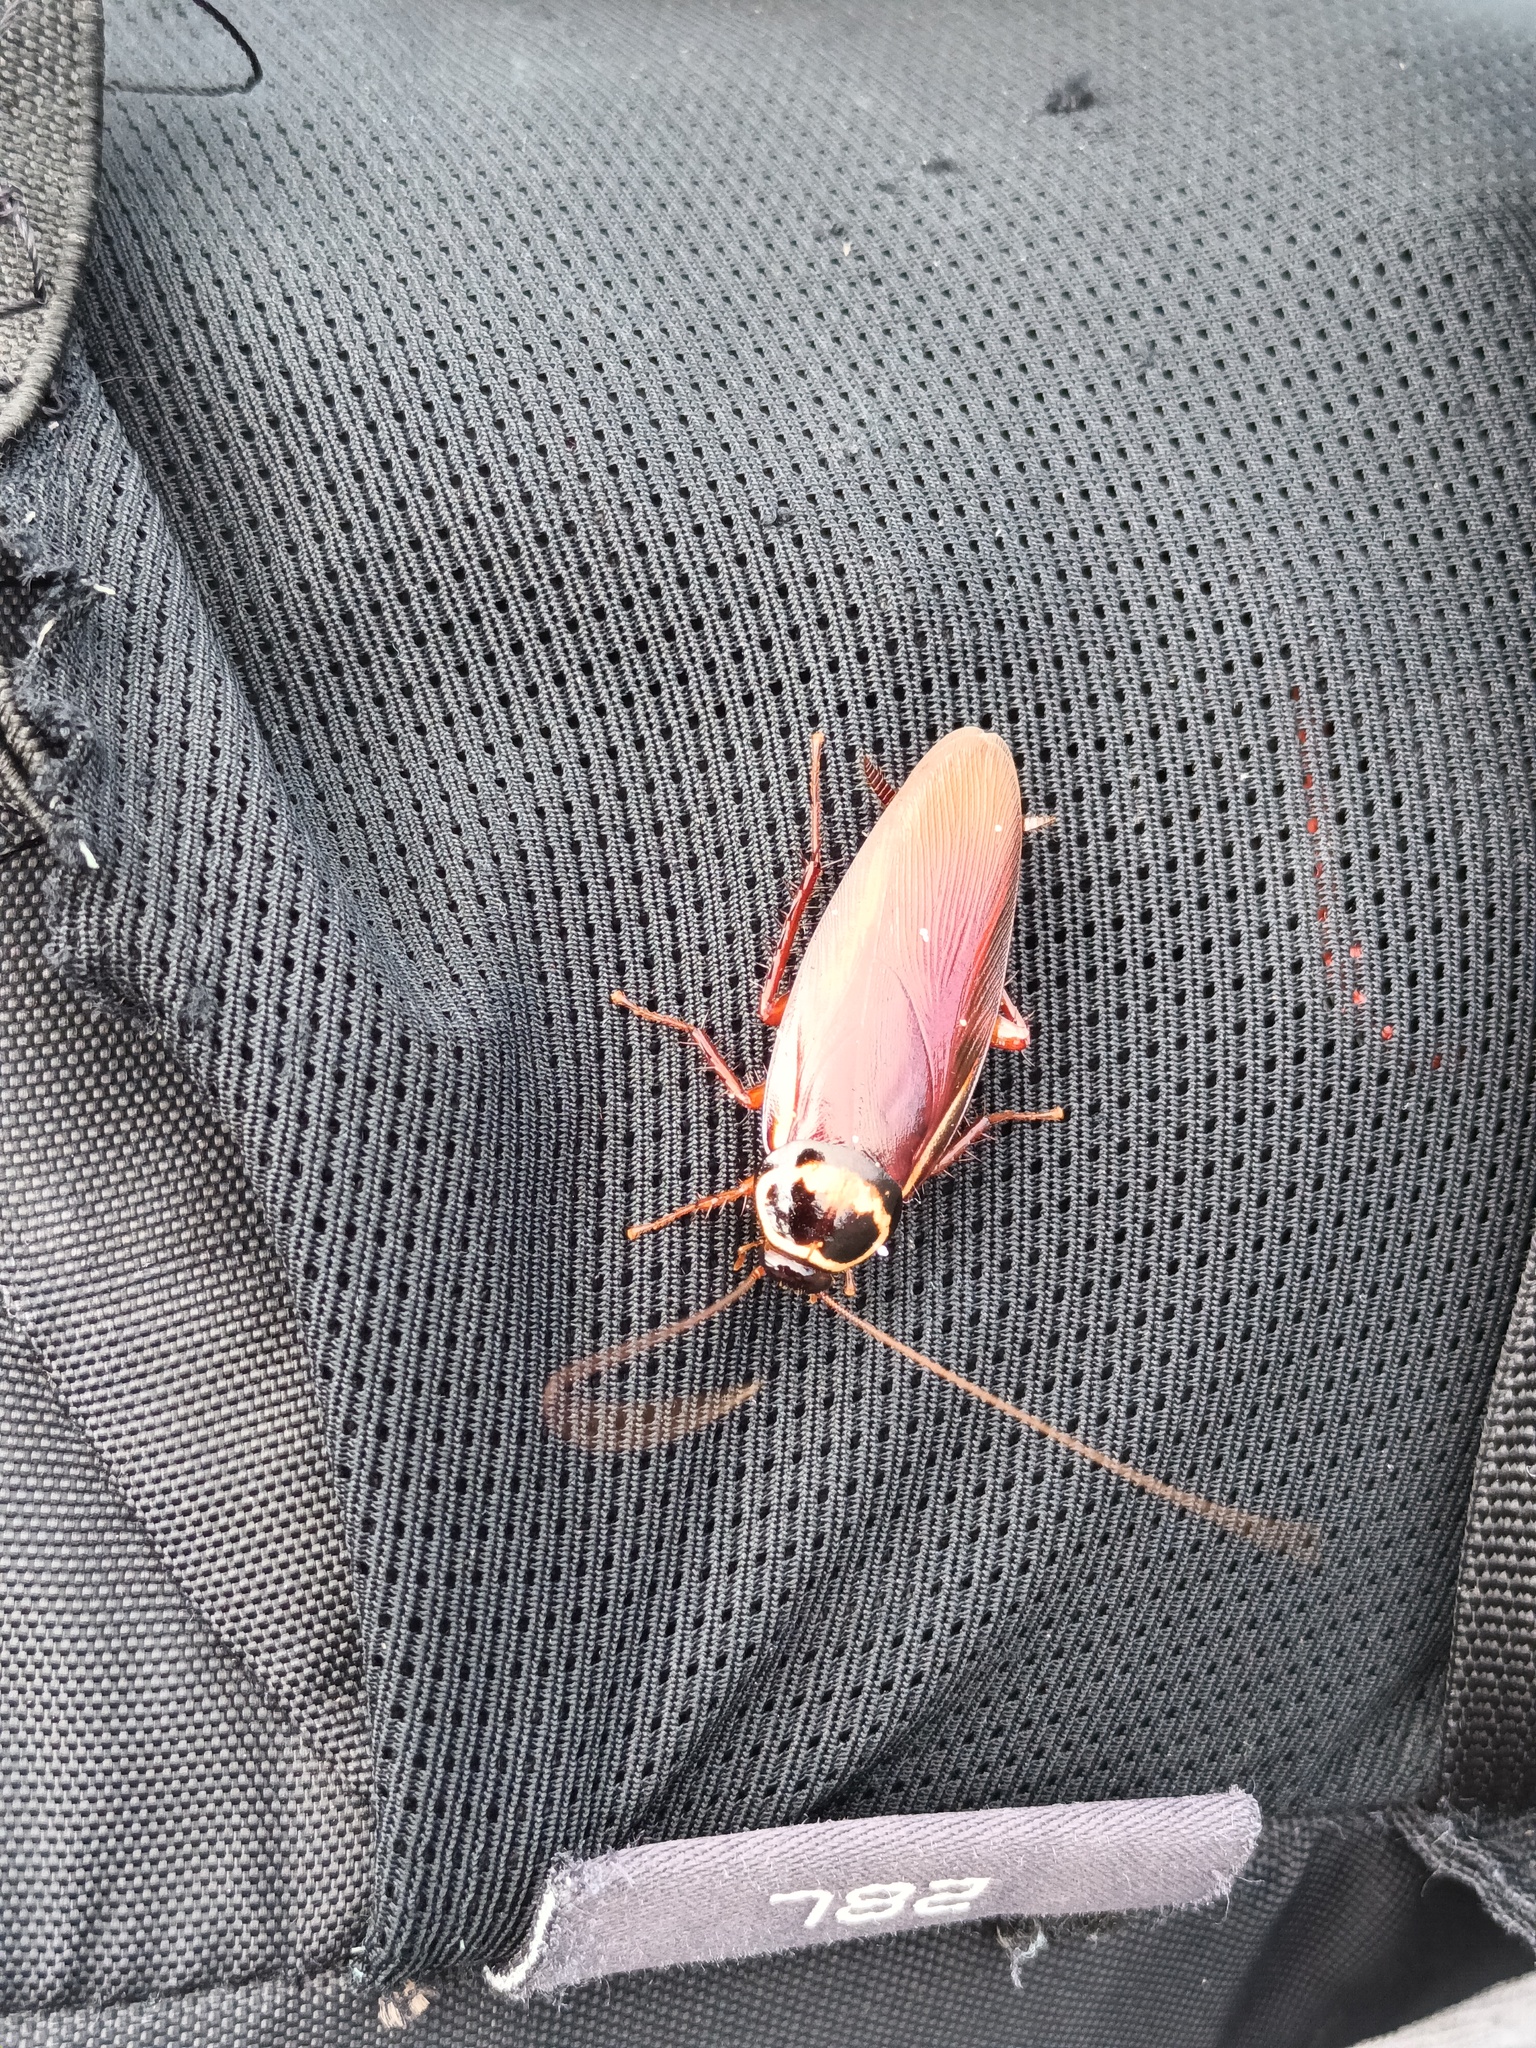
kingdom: Animalia
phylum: Arthropoda
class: Insecta
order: Blattodea
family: Blattidae
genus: Periplaneta
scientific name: Periplaneta australasiae
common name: Australian cockroach
